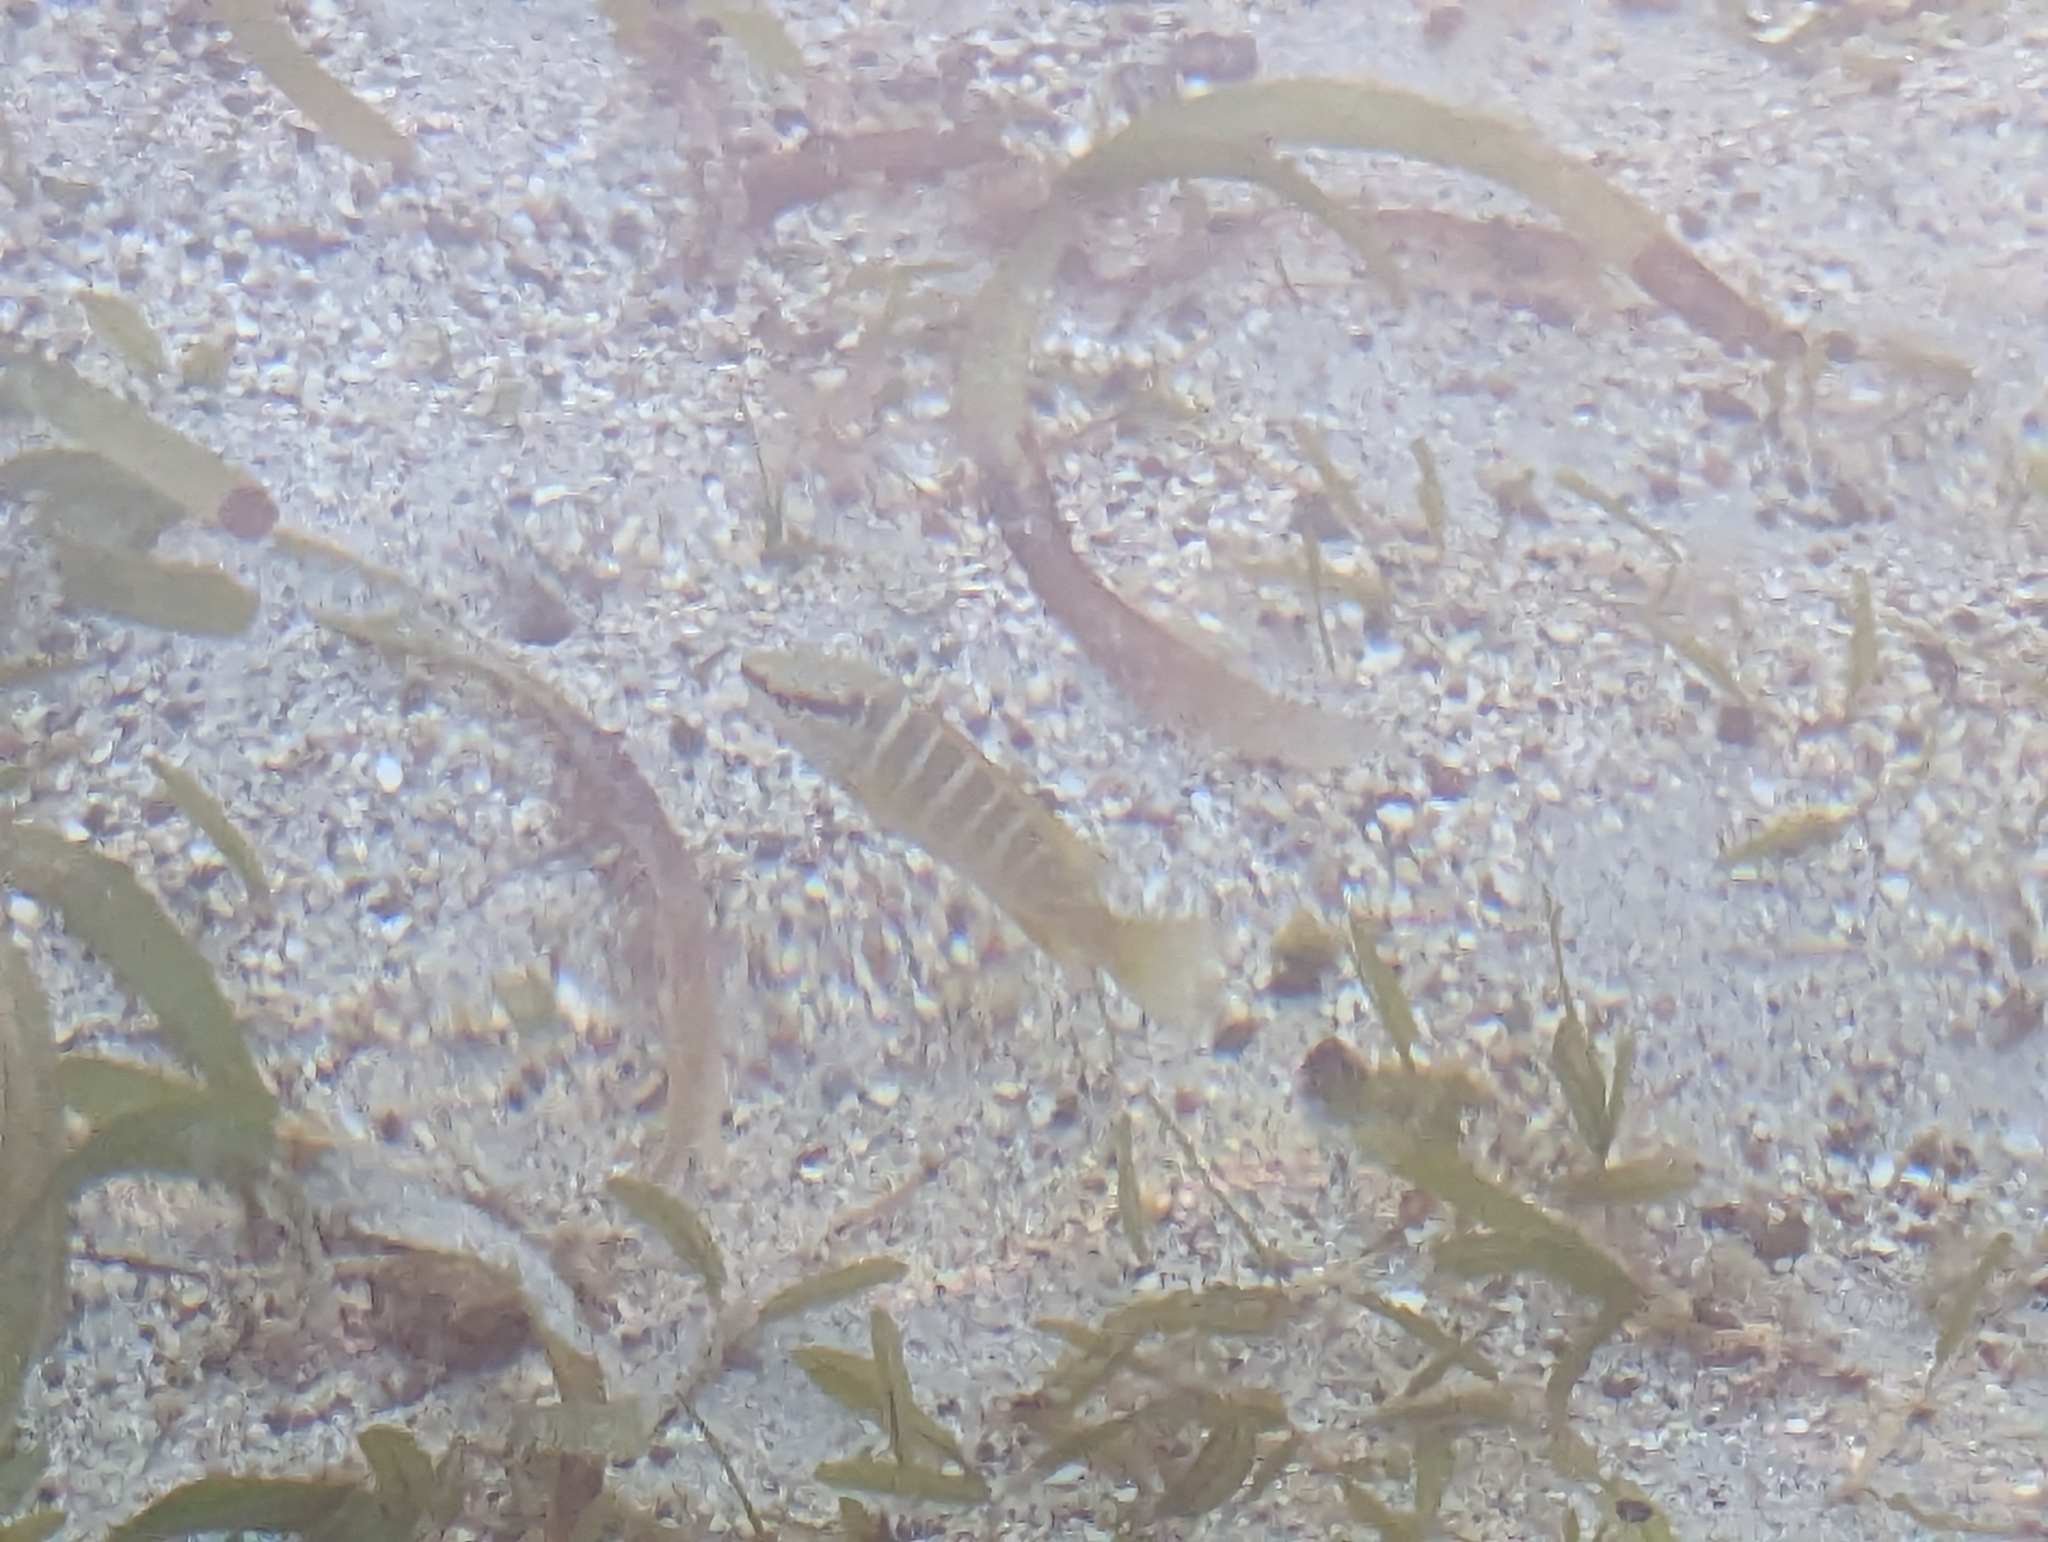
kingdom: Animalia
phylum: Chordata
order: Perciformes
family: Lutjanidae
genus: Lutjanus
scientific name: Lutjanus apodus
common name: Schoolmaster
